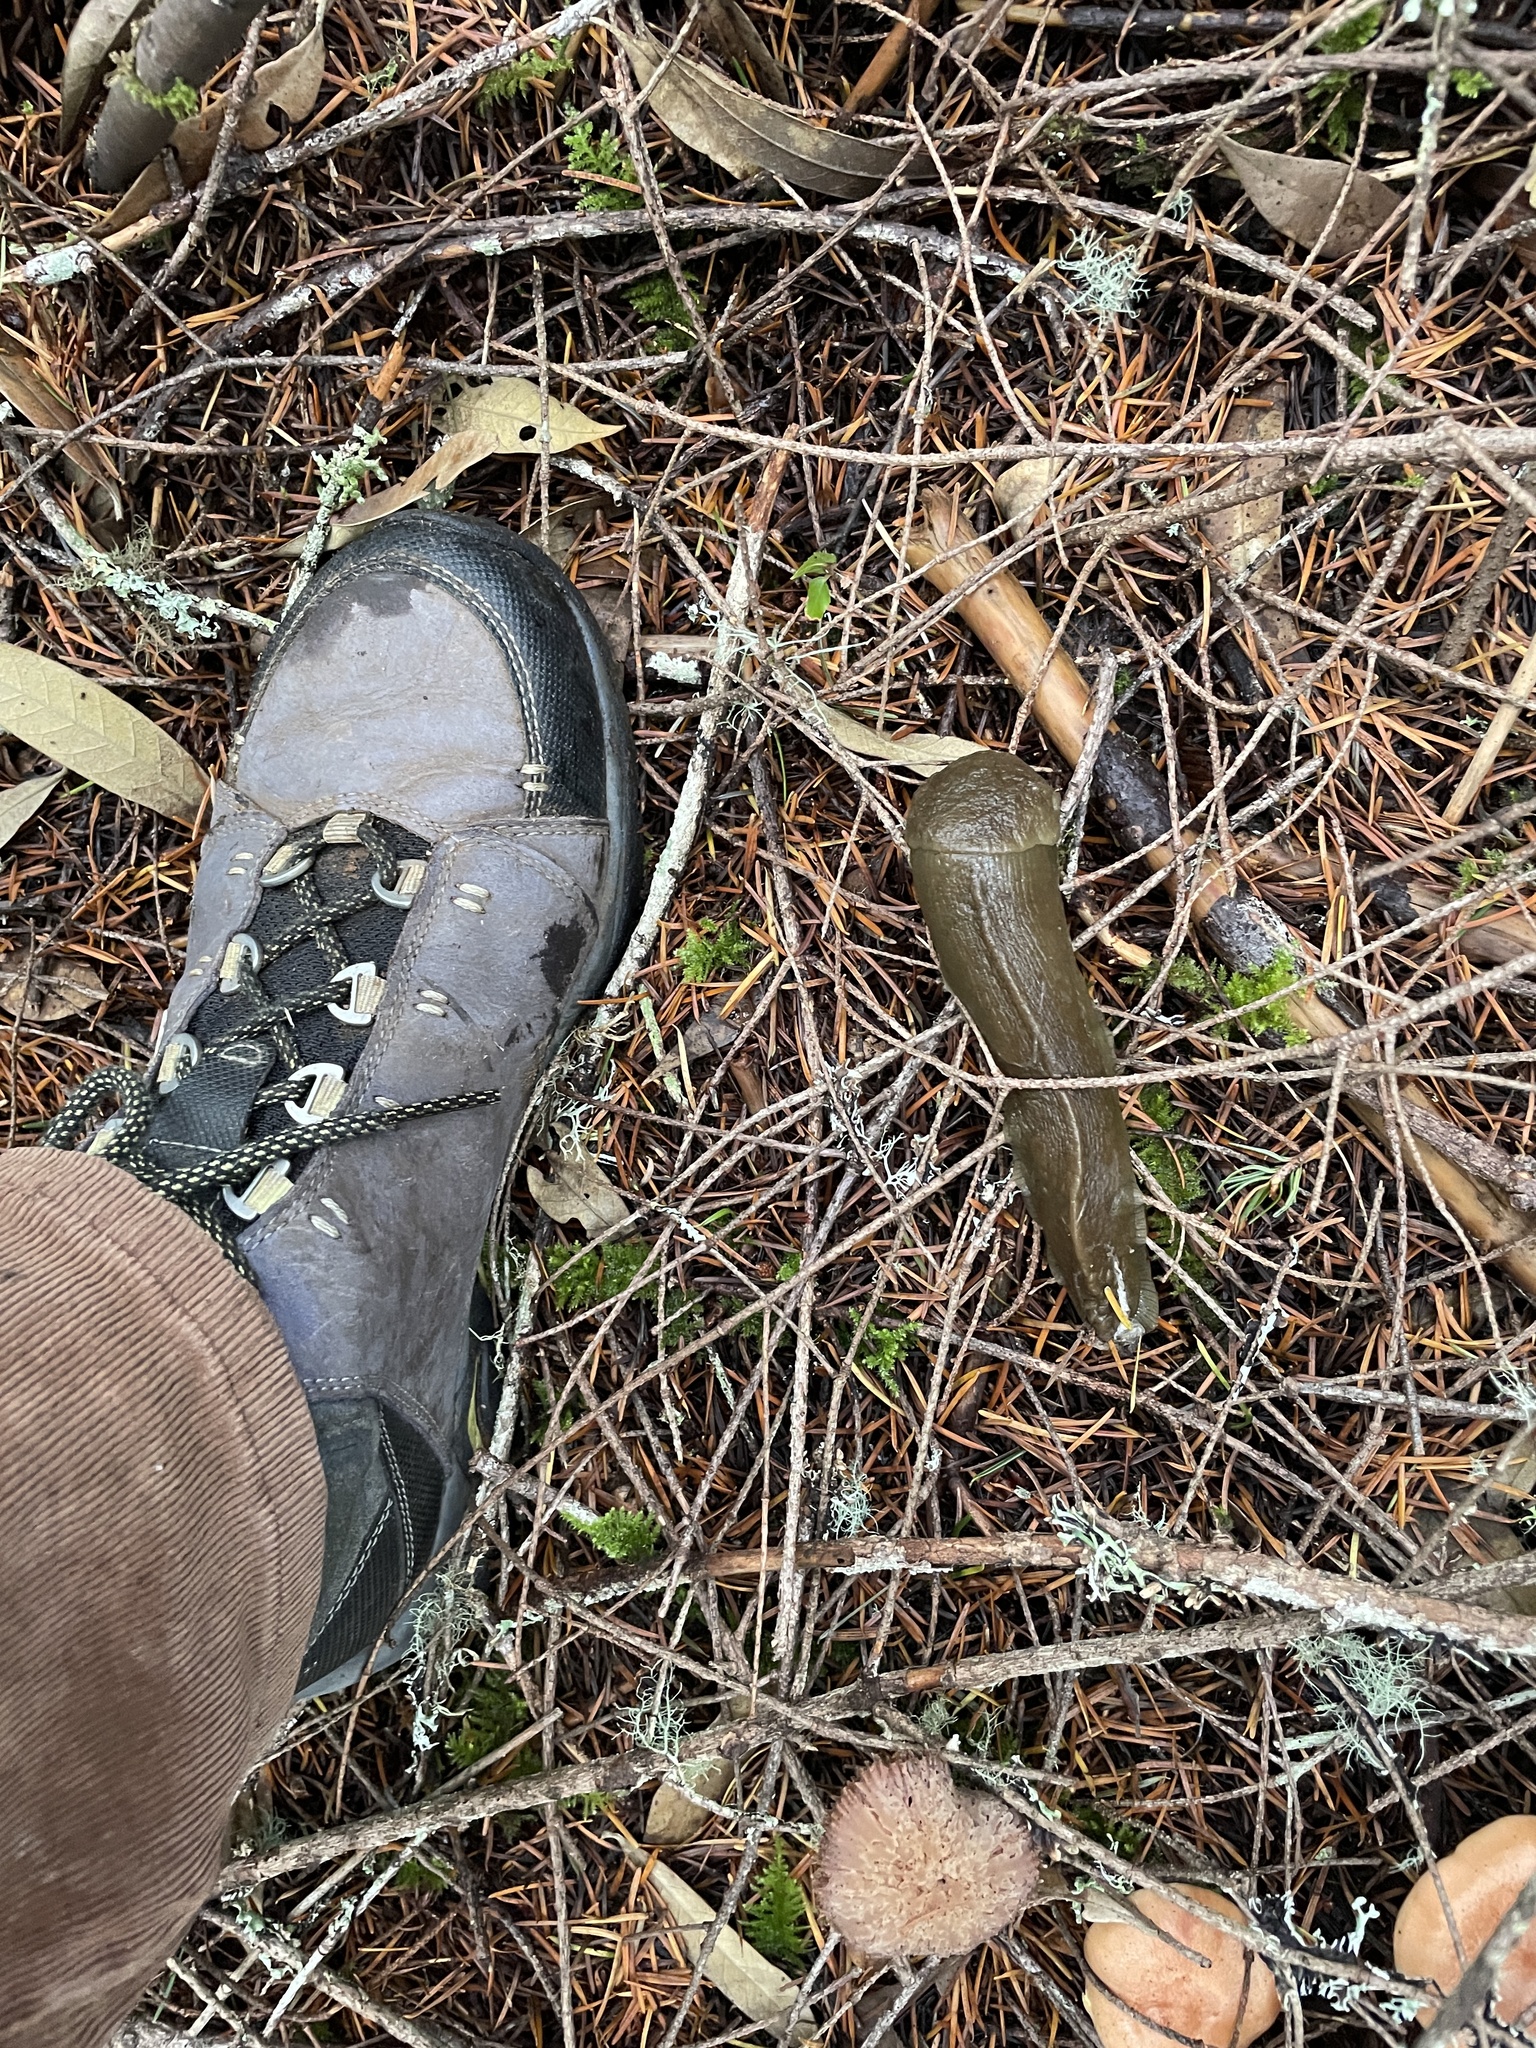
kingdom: Animalia
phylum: Mollusca
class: Gastropoda
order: Stylommatophora
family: Ariolimacidae
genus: Ariolimax
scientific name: Ariolimax columbianus
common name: Pacific banana slug
